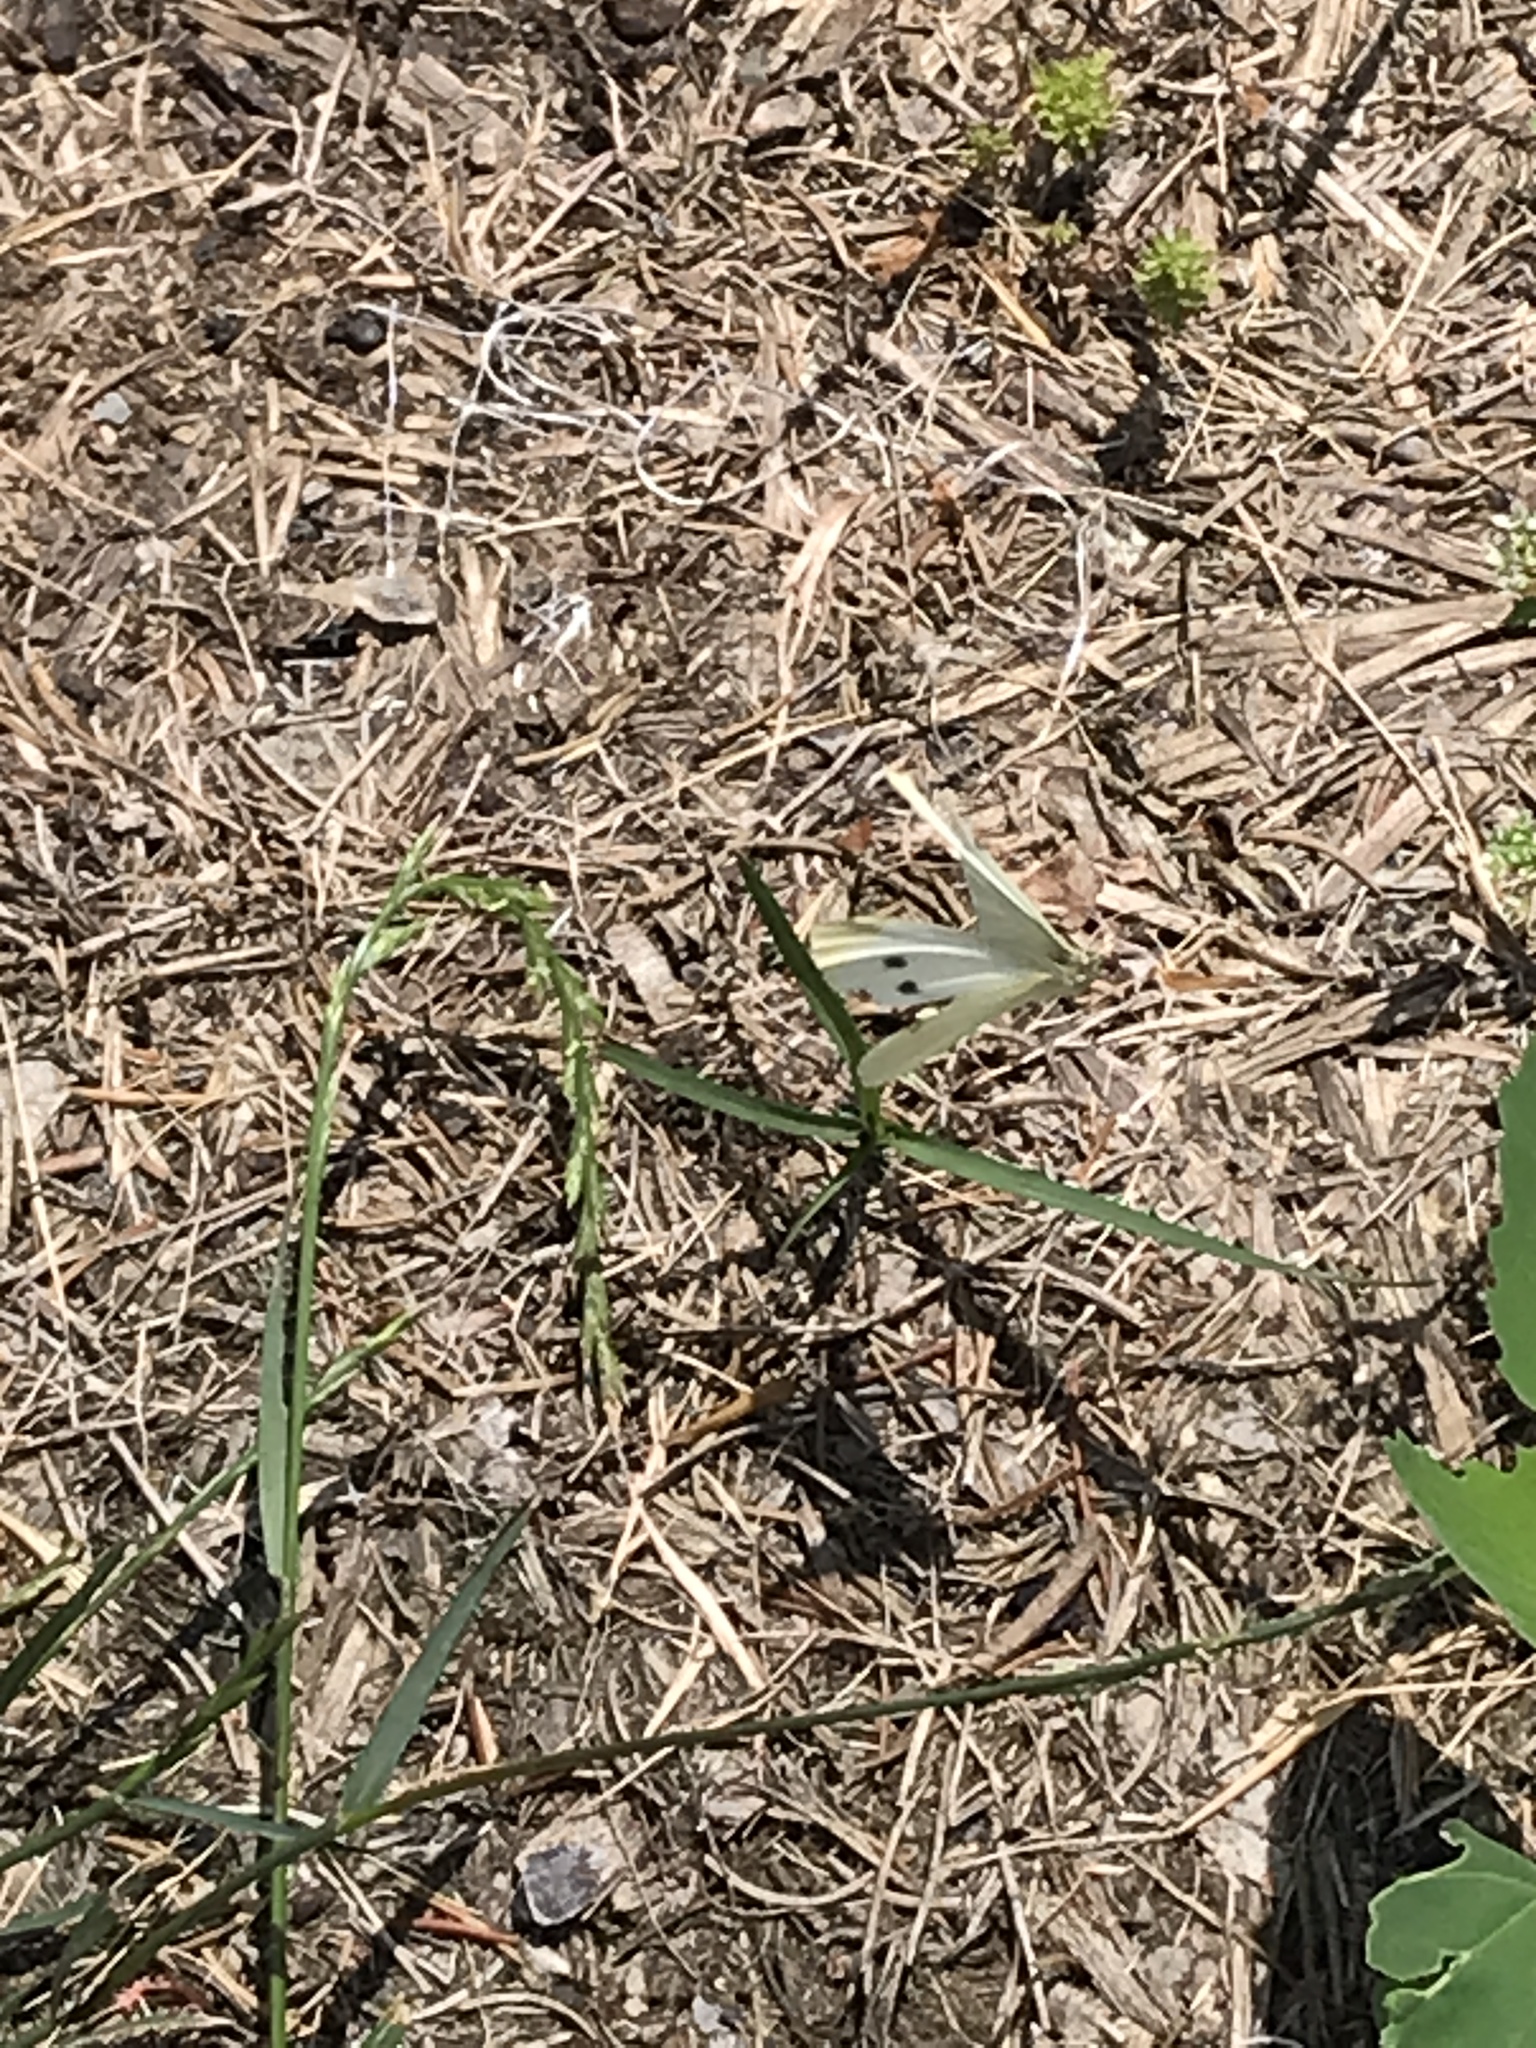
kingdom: Animalia
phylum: Arthropoda
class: Insecta
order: Lepidoptera
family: Pieridae
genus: Pieris
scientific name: Pieris rapae
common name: Small white
